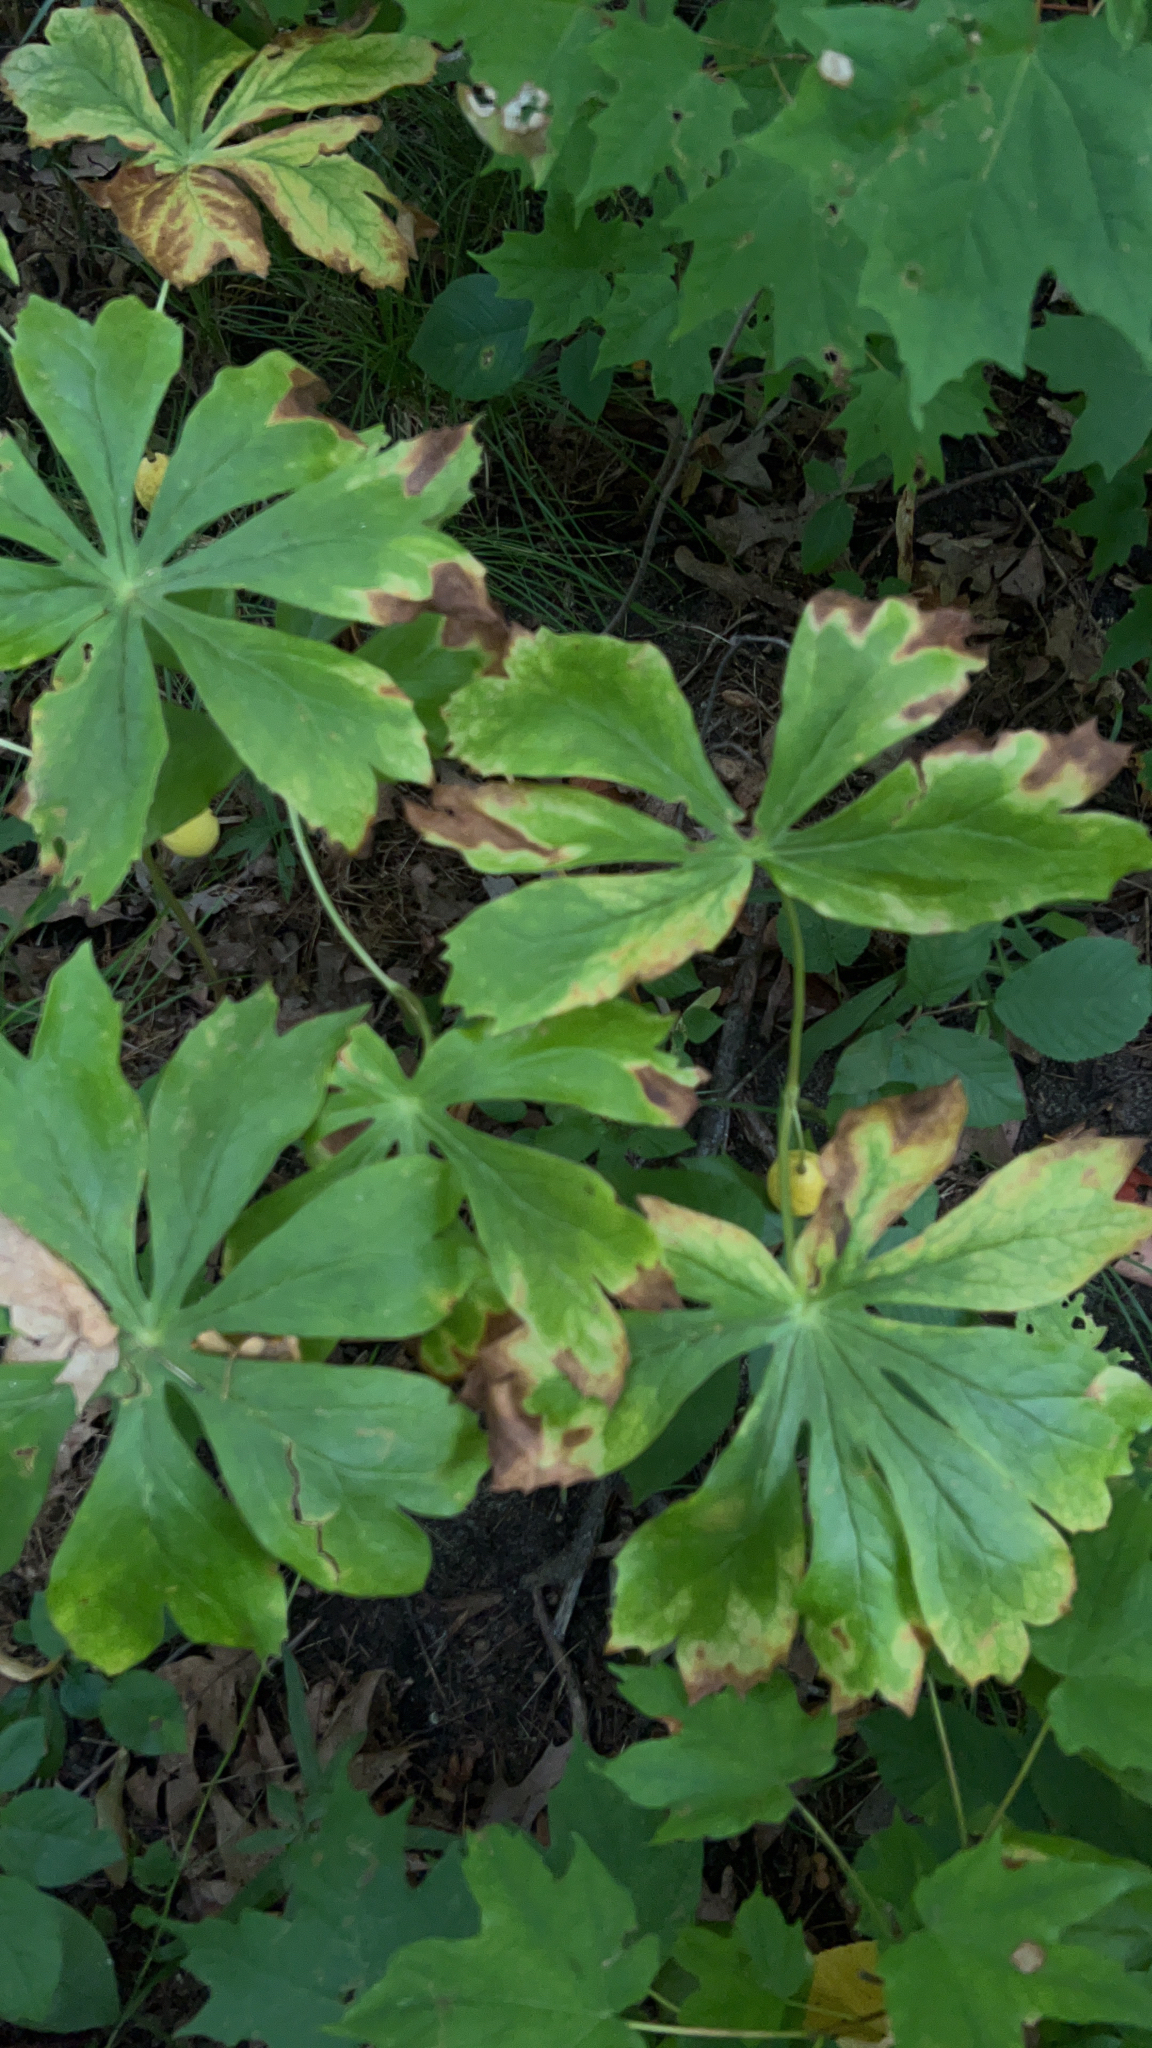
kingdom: Plantae
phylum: Tracheophyta
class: Magnoliopsida
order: Ranunculales
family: Berberidaceae
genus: Podophyllum
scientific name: Podophyllum peltatum
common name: Wild mandrake
